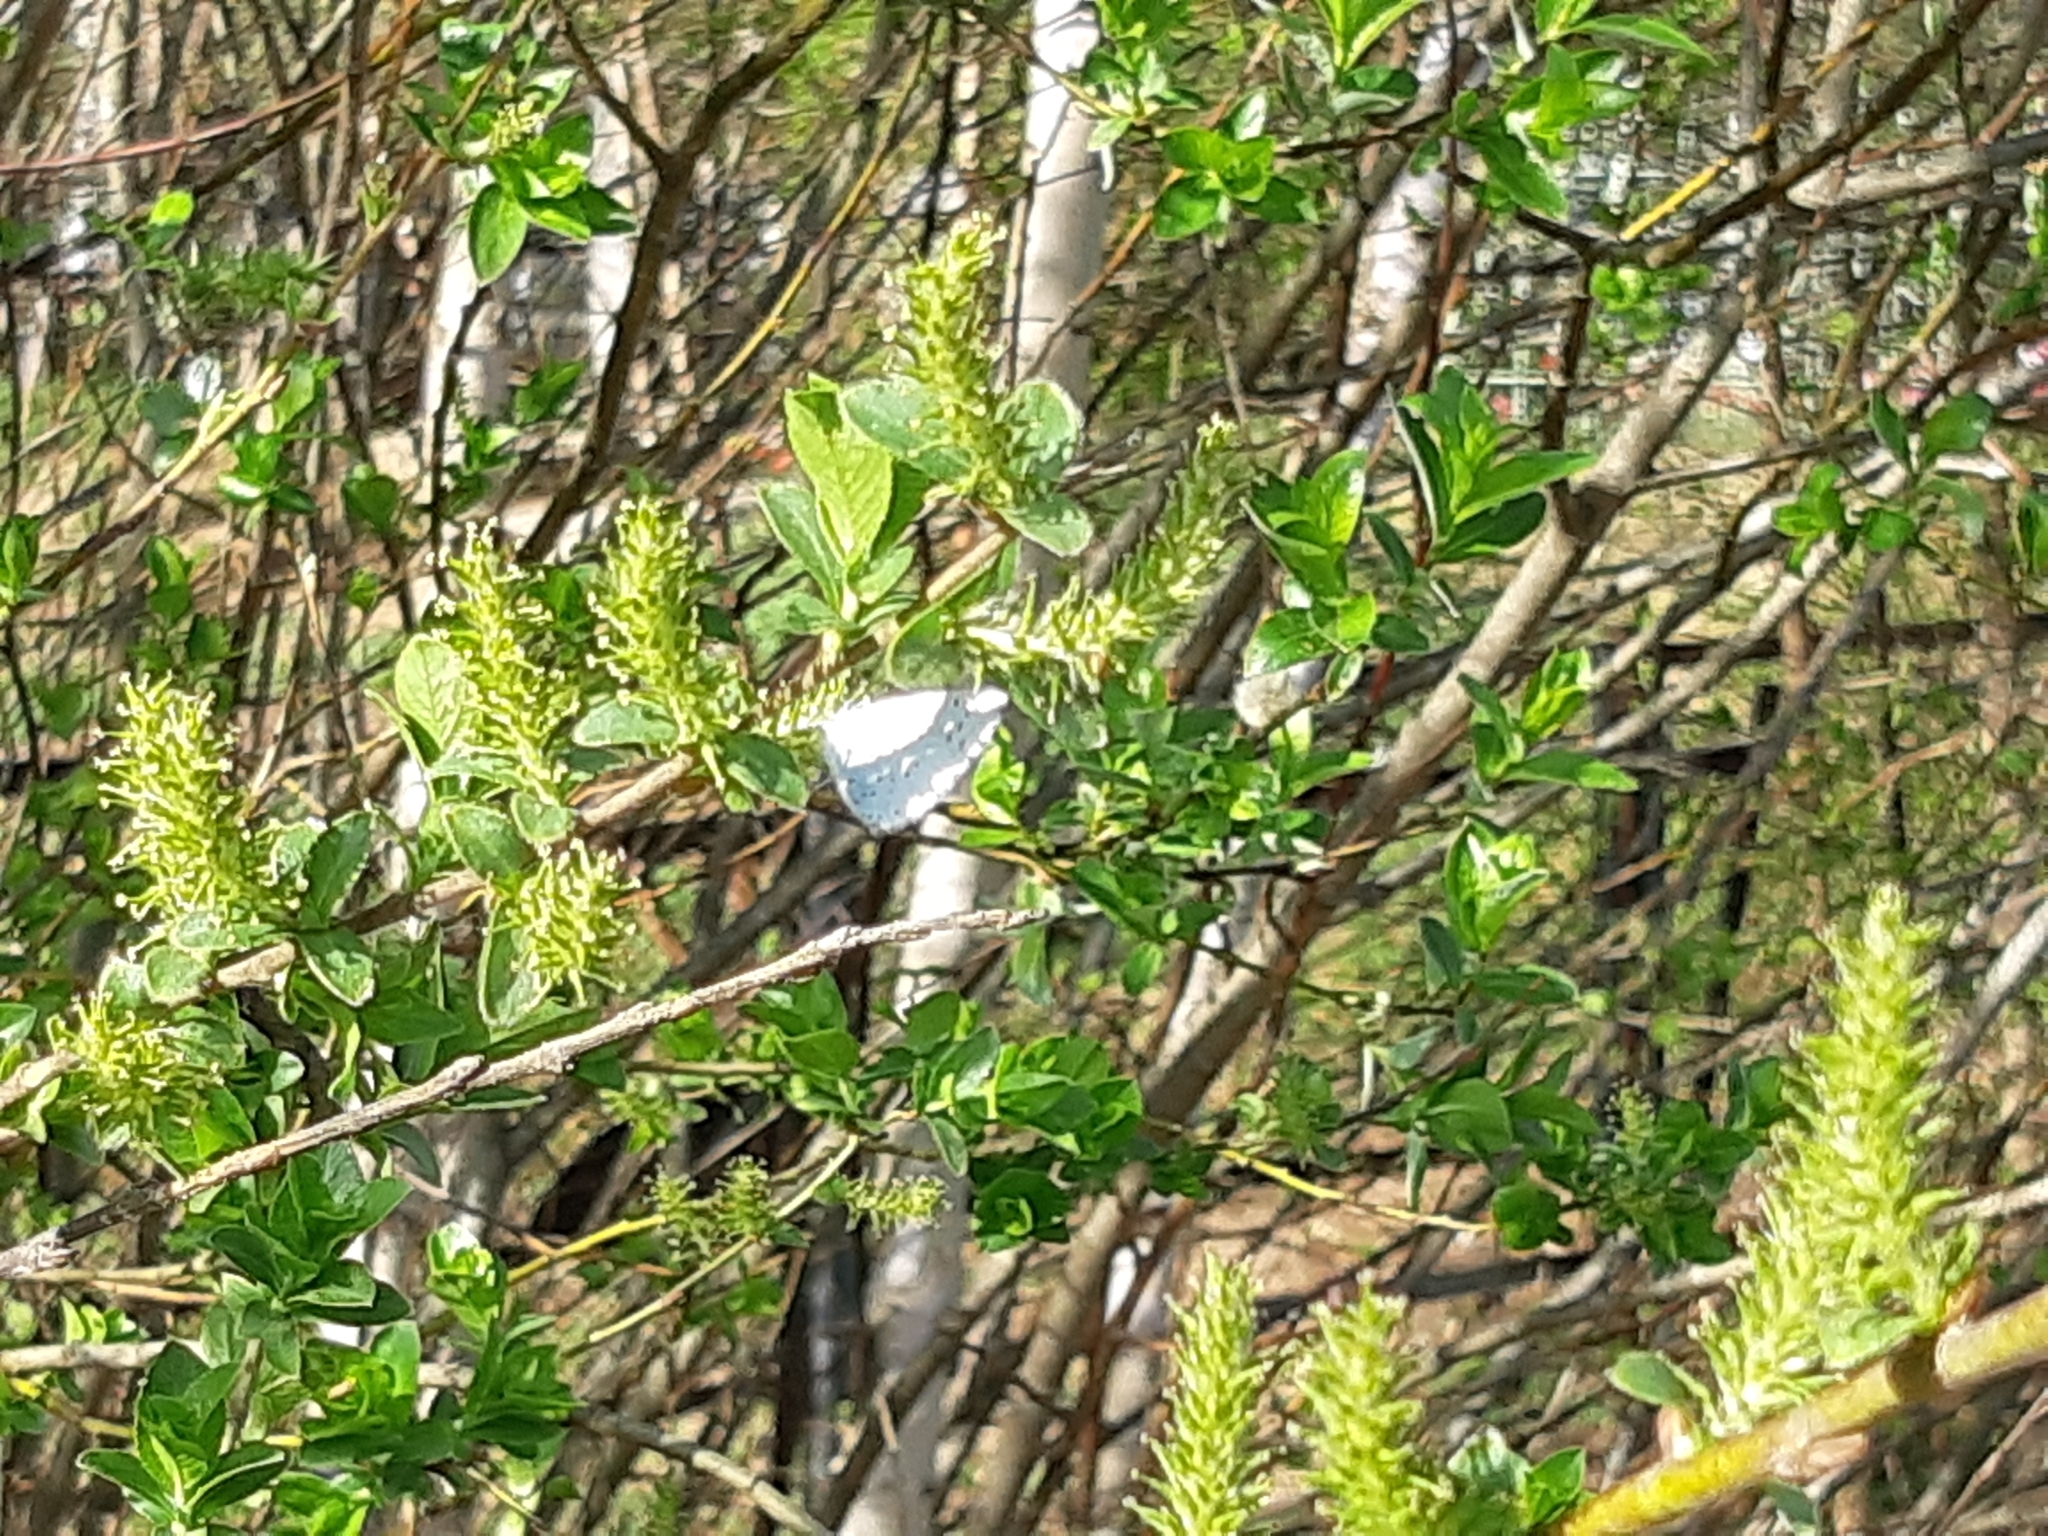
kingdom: Animalia
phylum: Arthropoda
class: Insecta
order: Lepidoptera
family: Lycaenidae
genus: Celastrina
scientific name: Celastrina argiolus
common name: Holly blue
